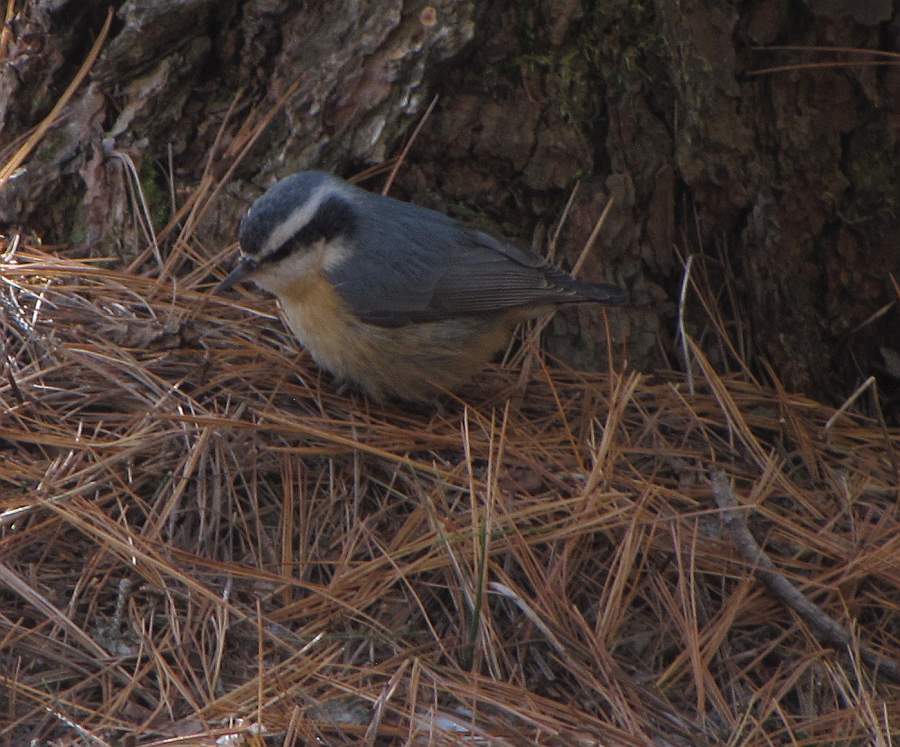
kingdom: Animalia
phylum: Chordata
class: Aves
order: Passeriformes
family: Sittidae
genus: Sitta
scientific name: Sitta canadensis
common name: Red-breasted nuthatch
